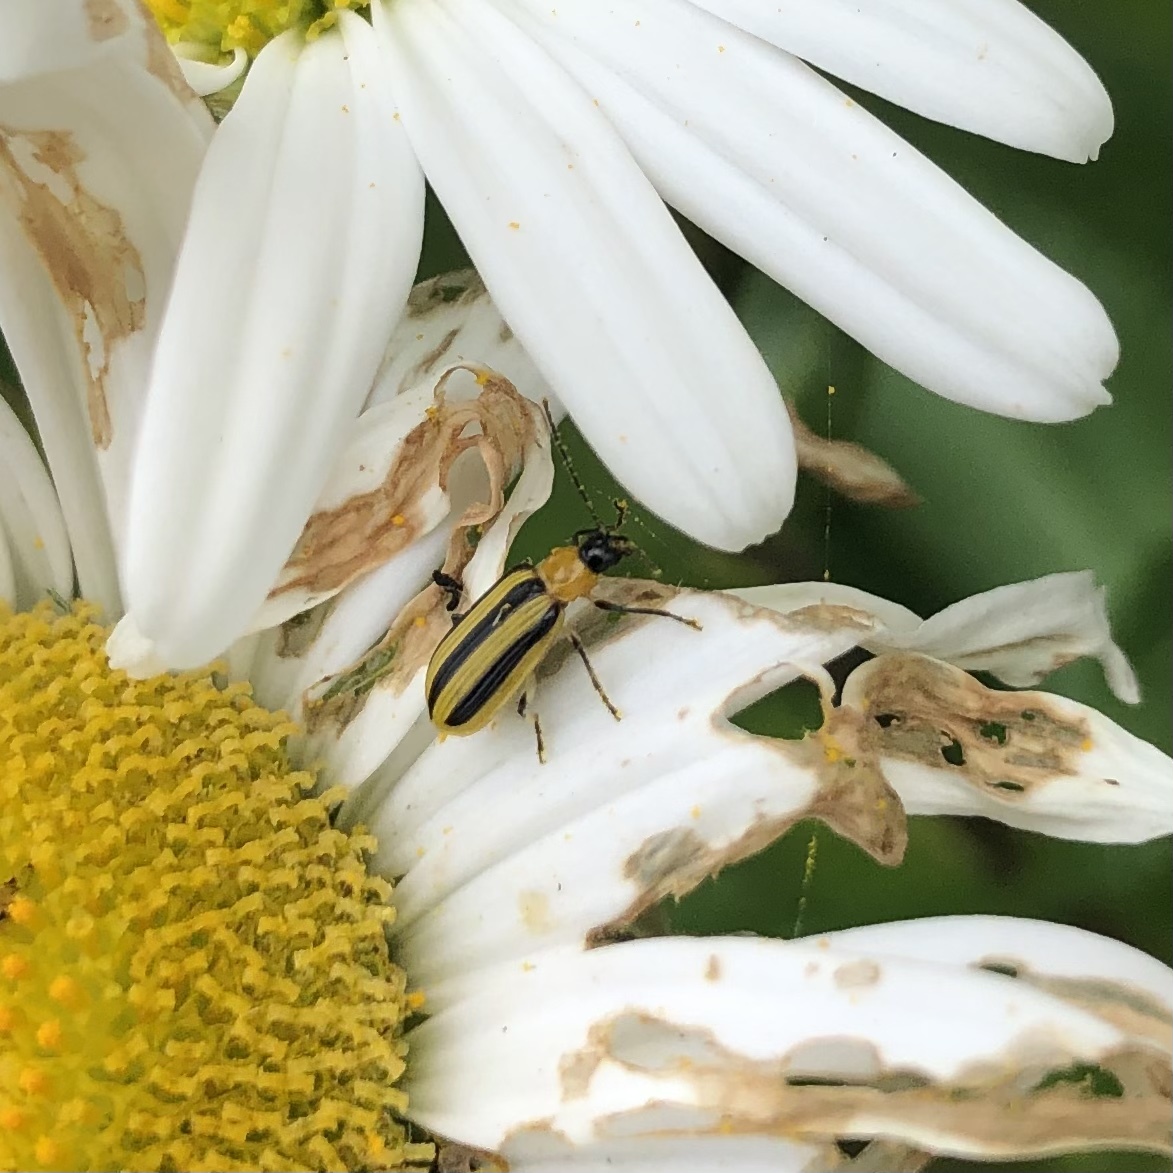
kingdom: Animalia
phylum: Arthropoda
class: Insecta
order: Coleoptera
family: Chrysomelidae
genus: Acalymma
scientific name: Acalymma vittatum
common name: Striped cucumber beetle
